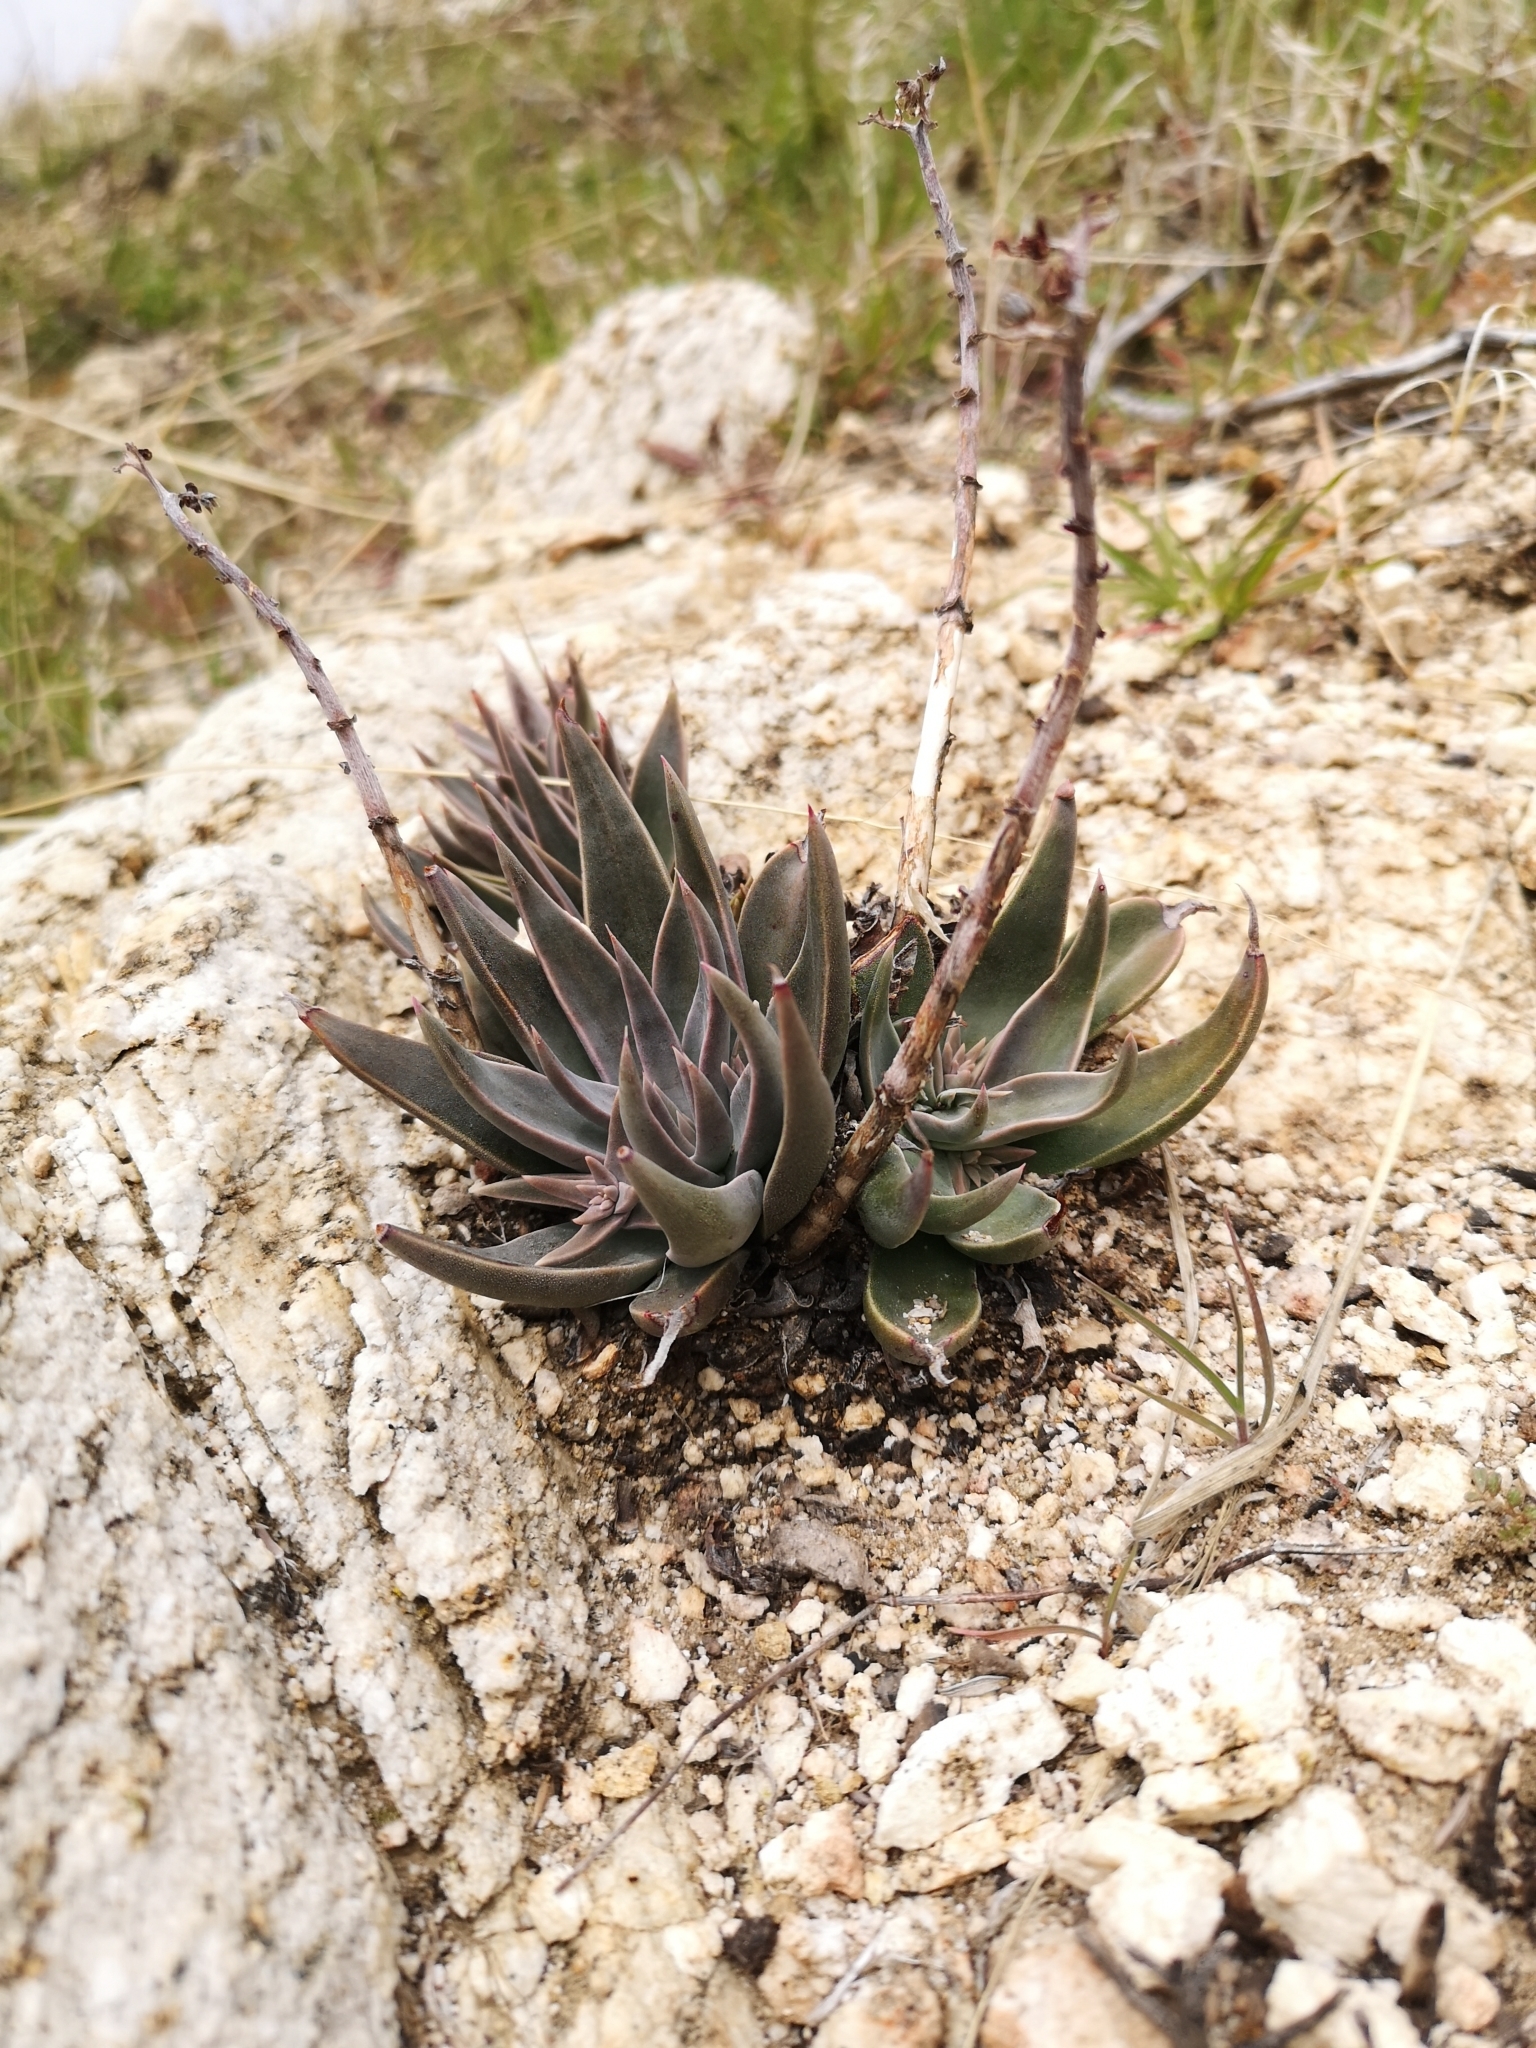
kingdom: Plantae
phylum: Tracheophyta
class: Magnoliopsida
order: Saxifragales
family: Crassulaceae
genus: Dudleya
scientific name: Dudleya lanceolata
